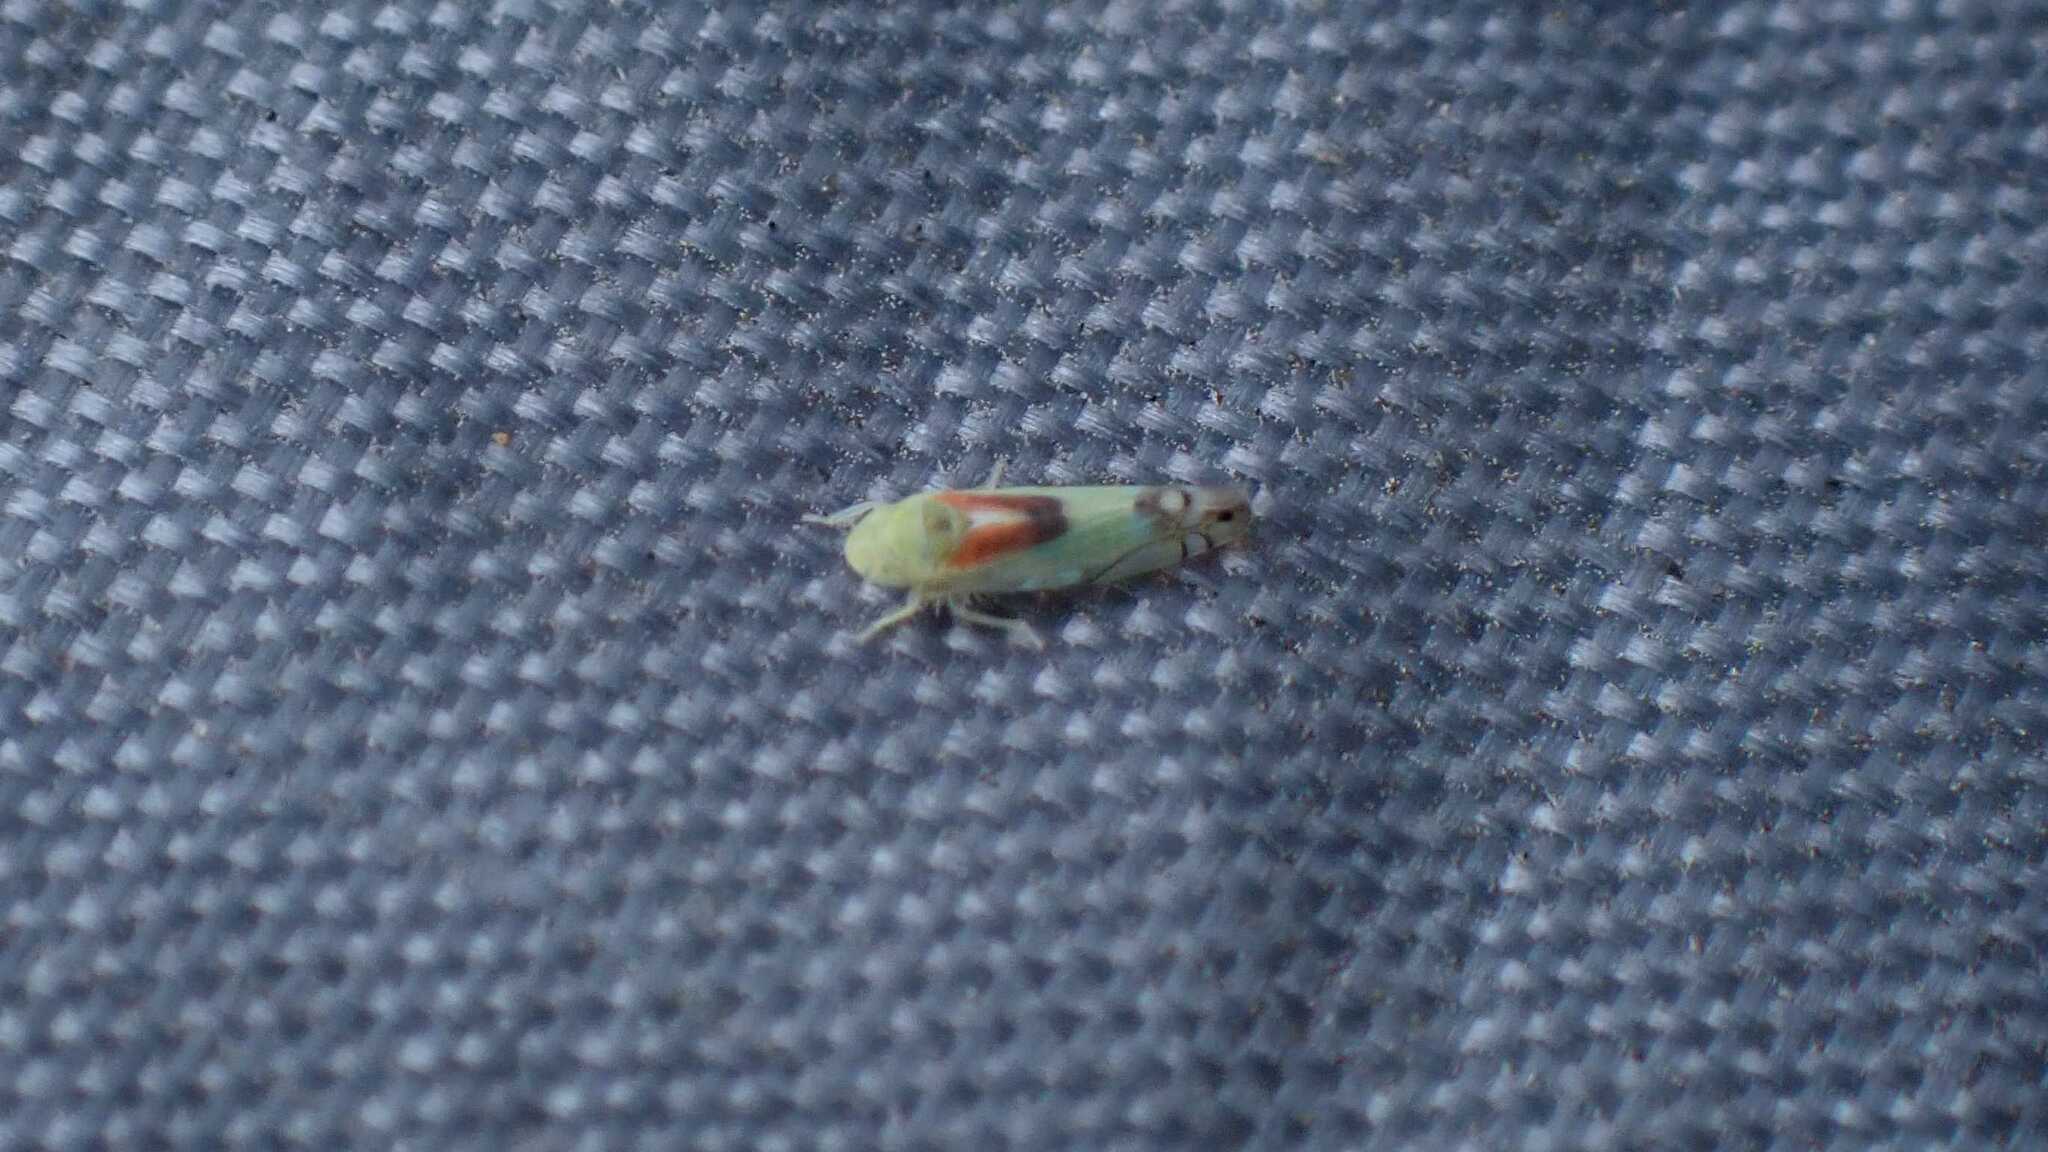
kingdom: Animalia
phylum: Arthropoda
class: Insecta
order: Hemiptera
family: Cicadellidae
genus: Zyginella
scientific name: Zyginella pulchra
